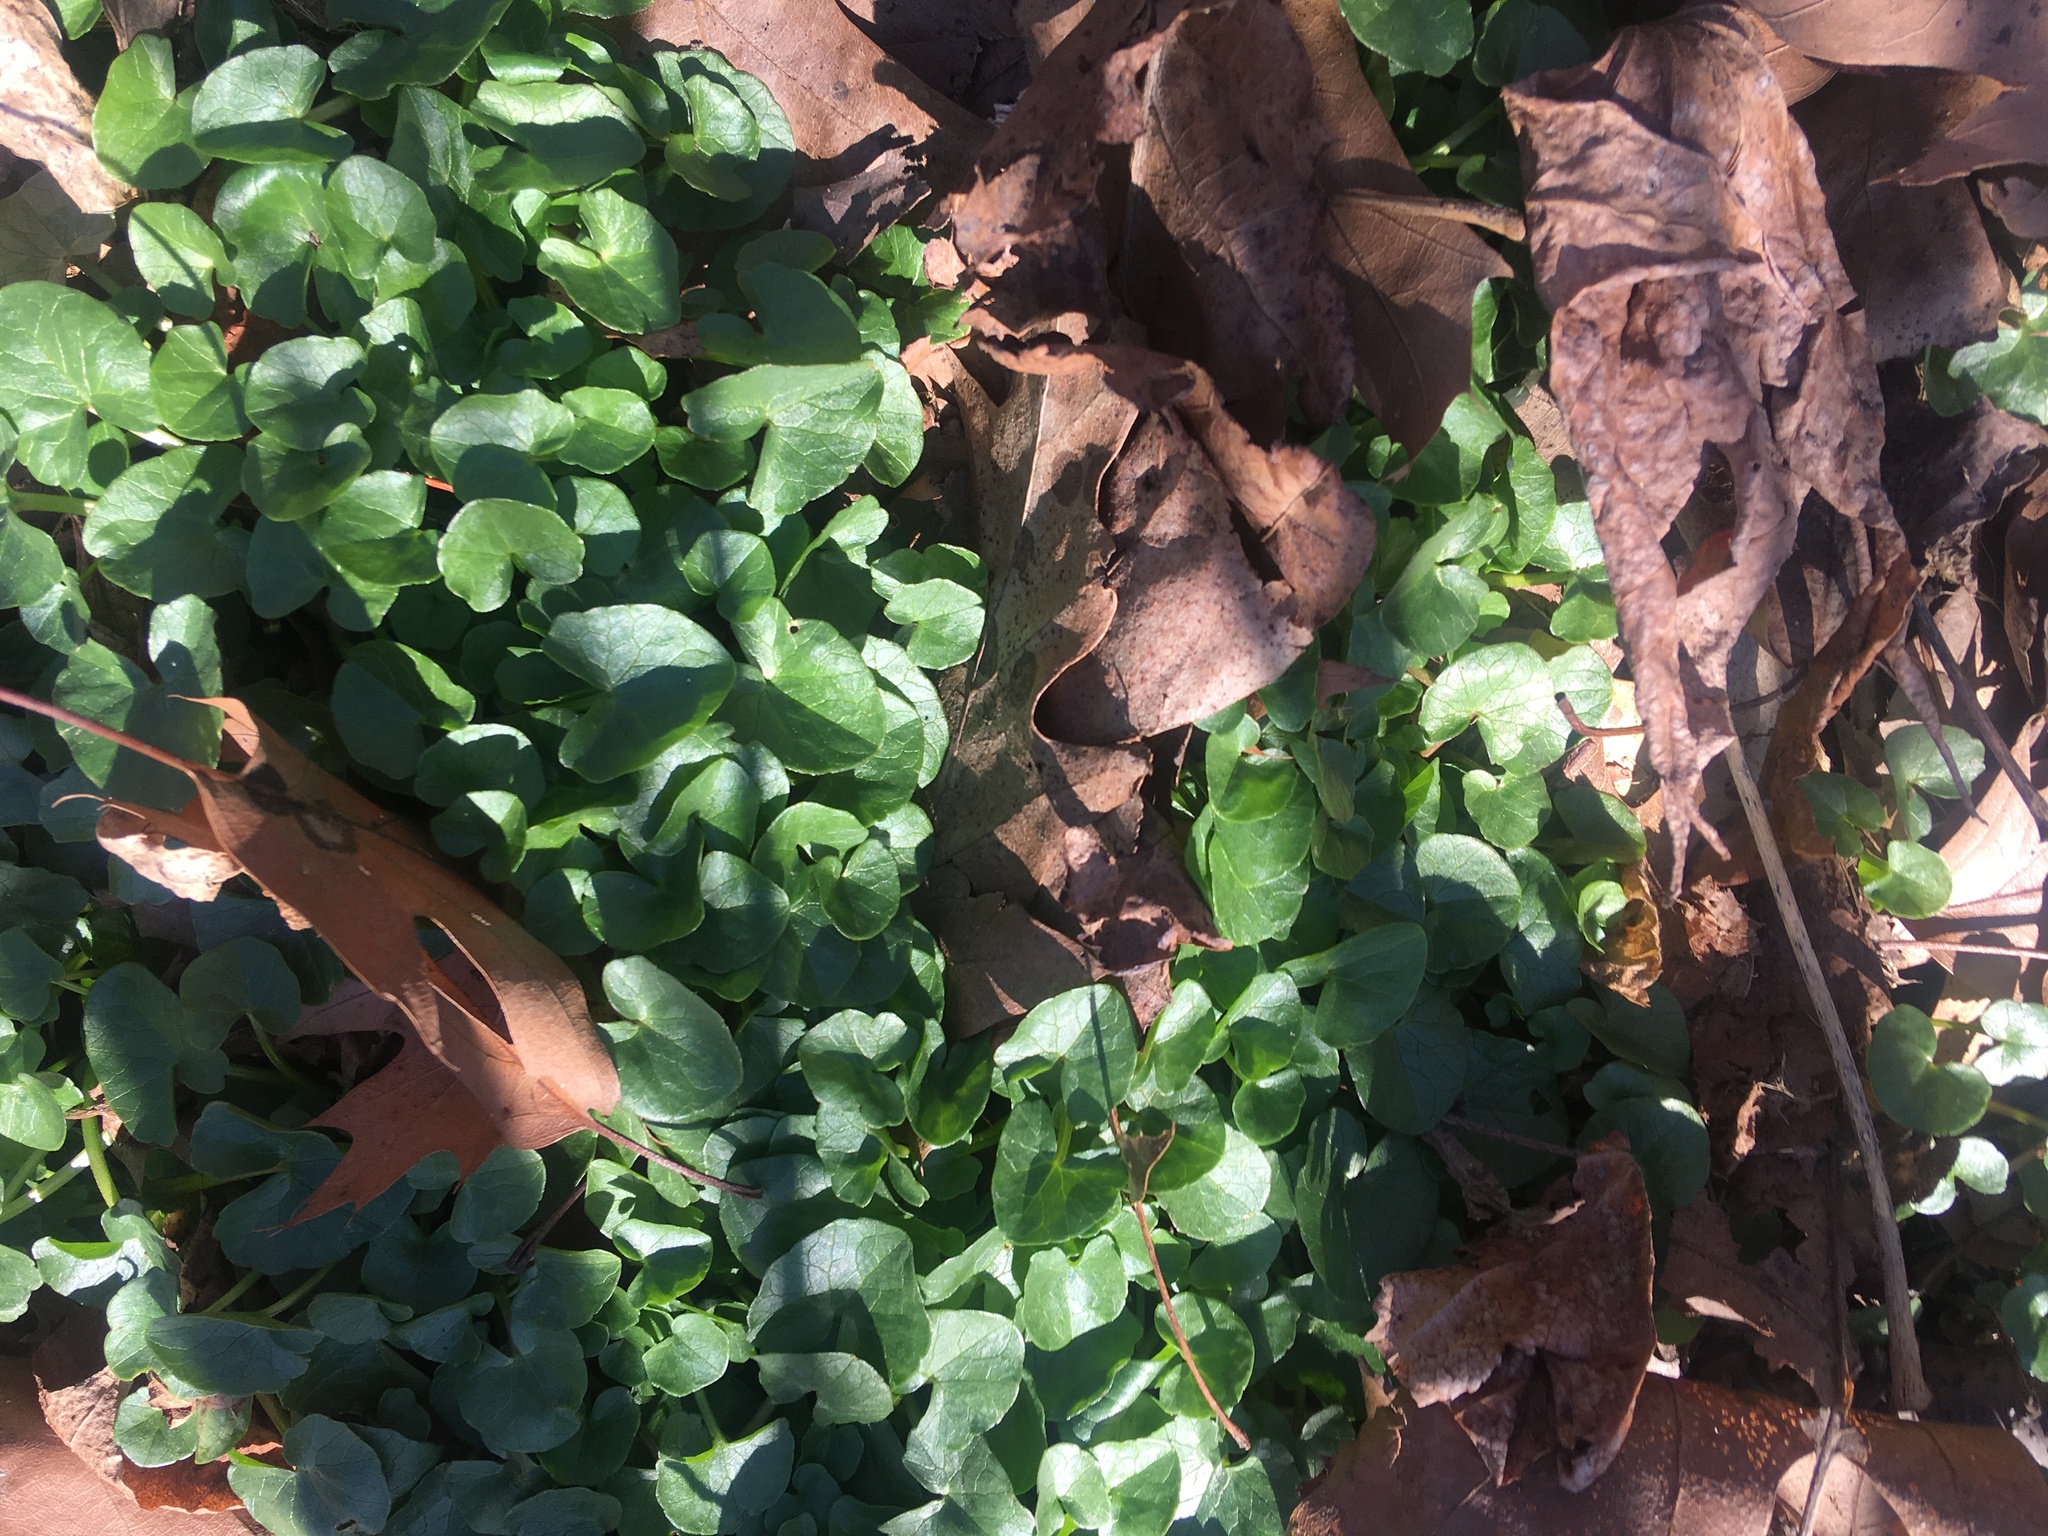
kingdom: Plantae
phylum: Tracheophyta
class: Magnoliopsida
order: Ranunculales
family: Ranunculaceae
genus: Ficaria
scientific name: Ficaria verna
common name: Lesser celandine
